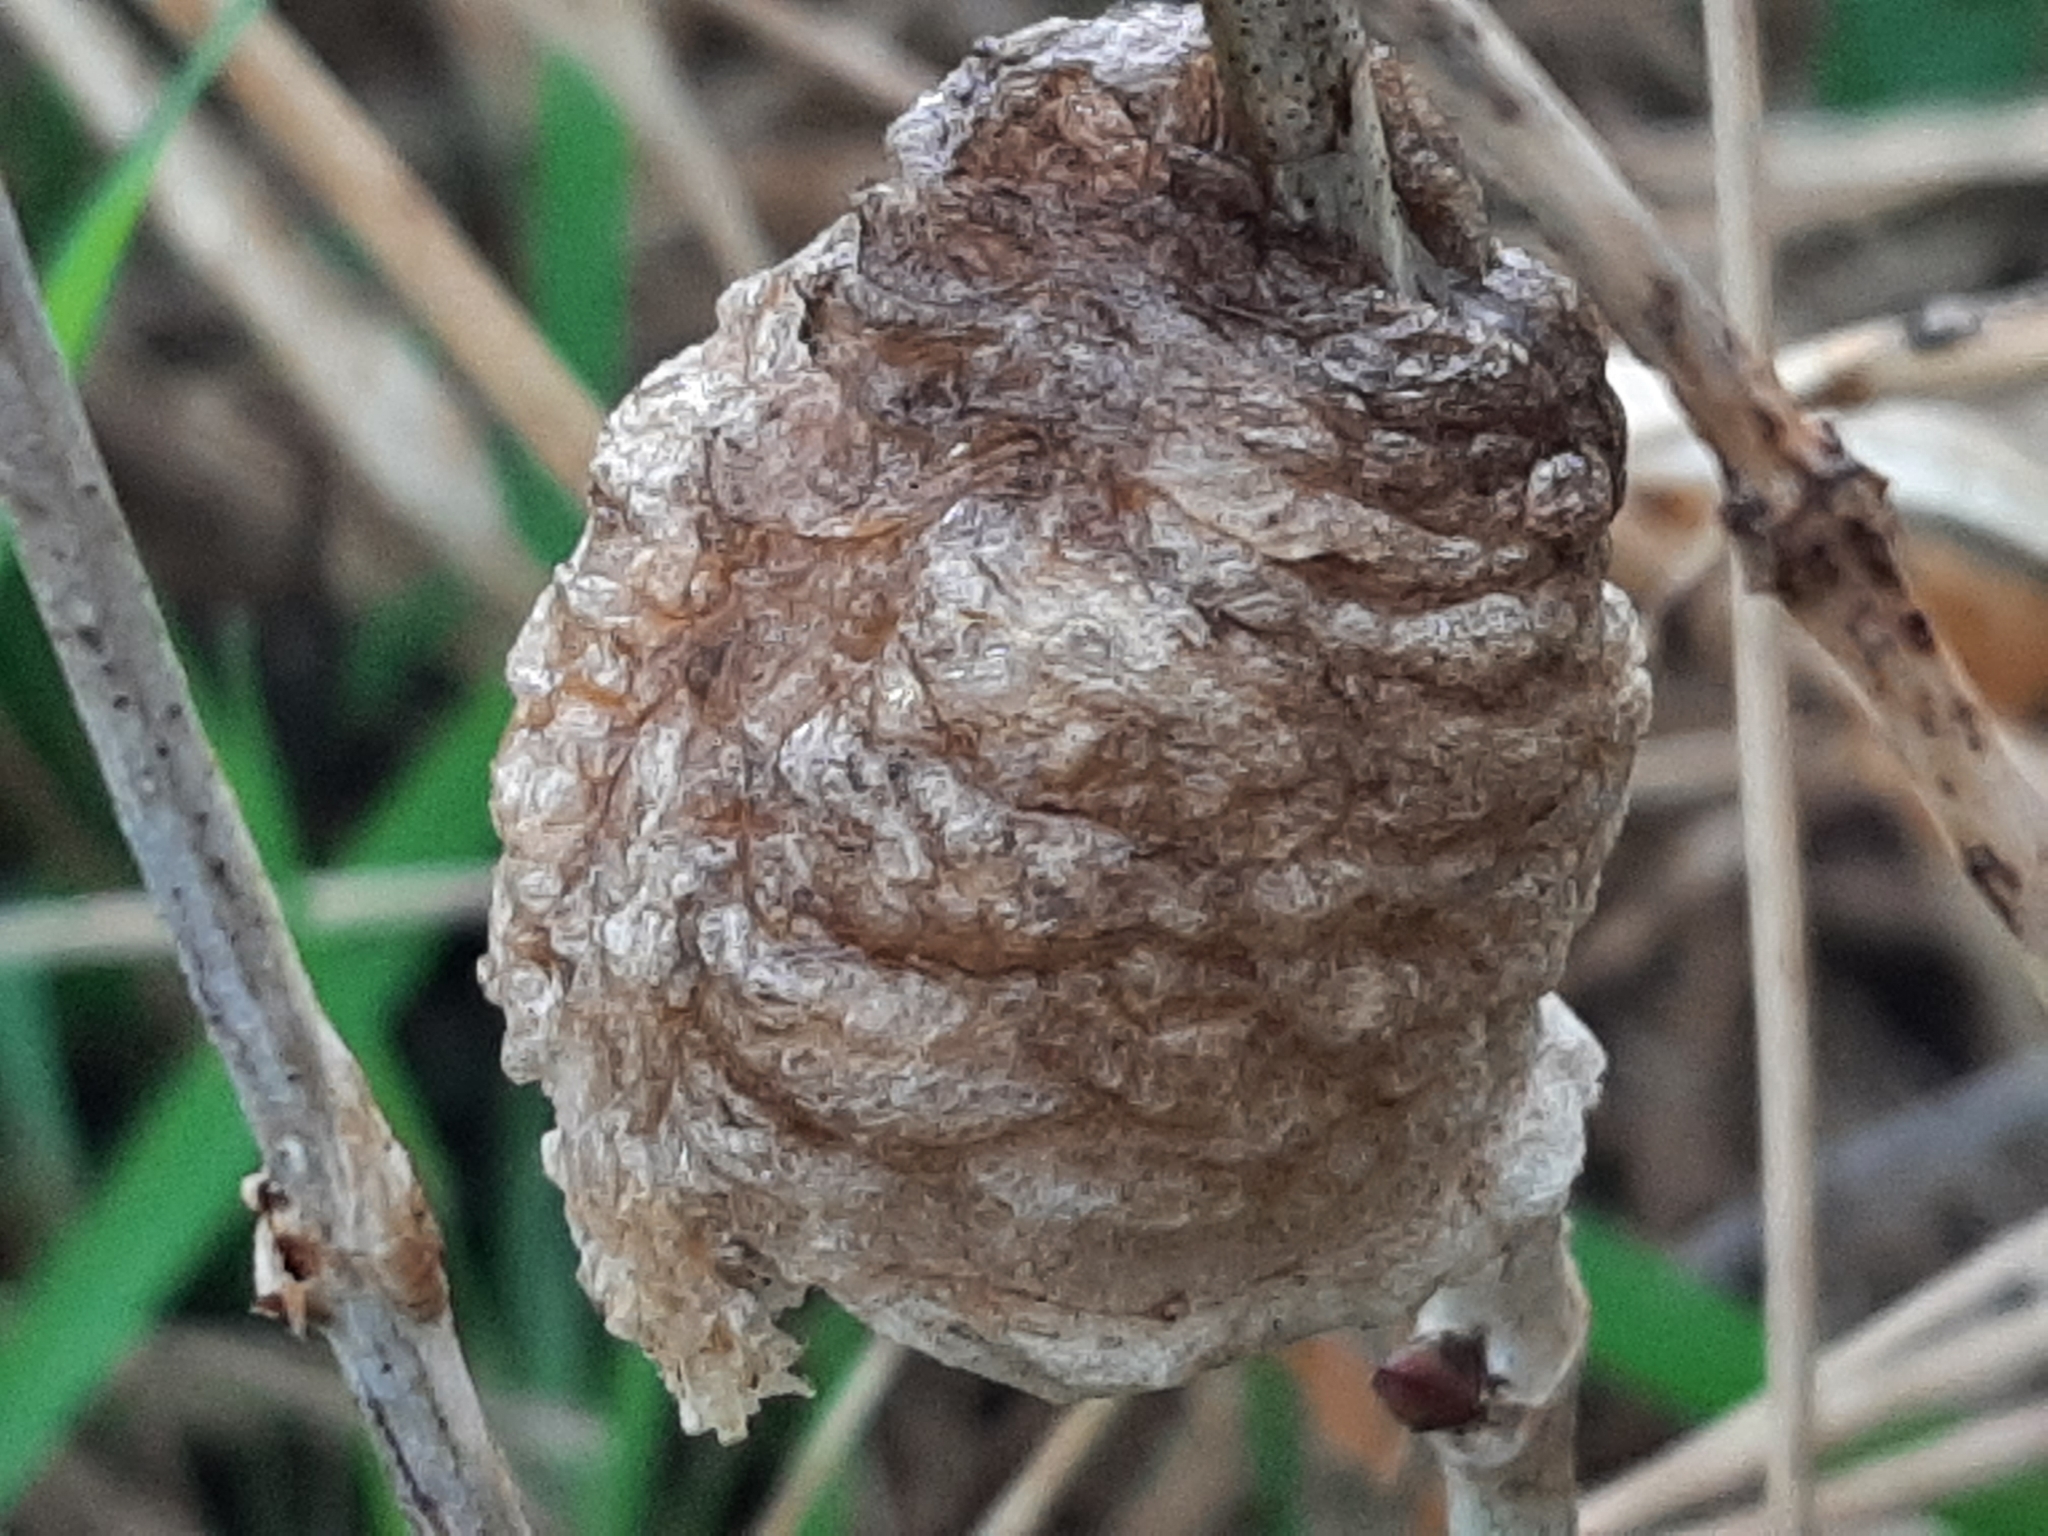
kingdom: Animalia
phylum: Arthropoda
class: Insecta
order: Mantodea
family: Mantidae
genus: Tenodera
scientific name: Tenodera sinensis
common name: Chinese mantis
